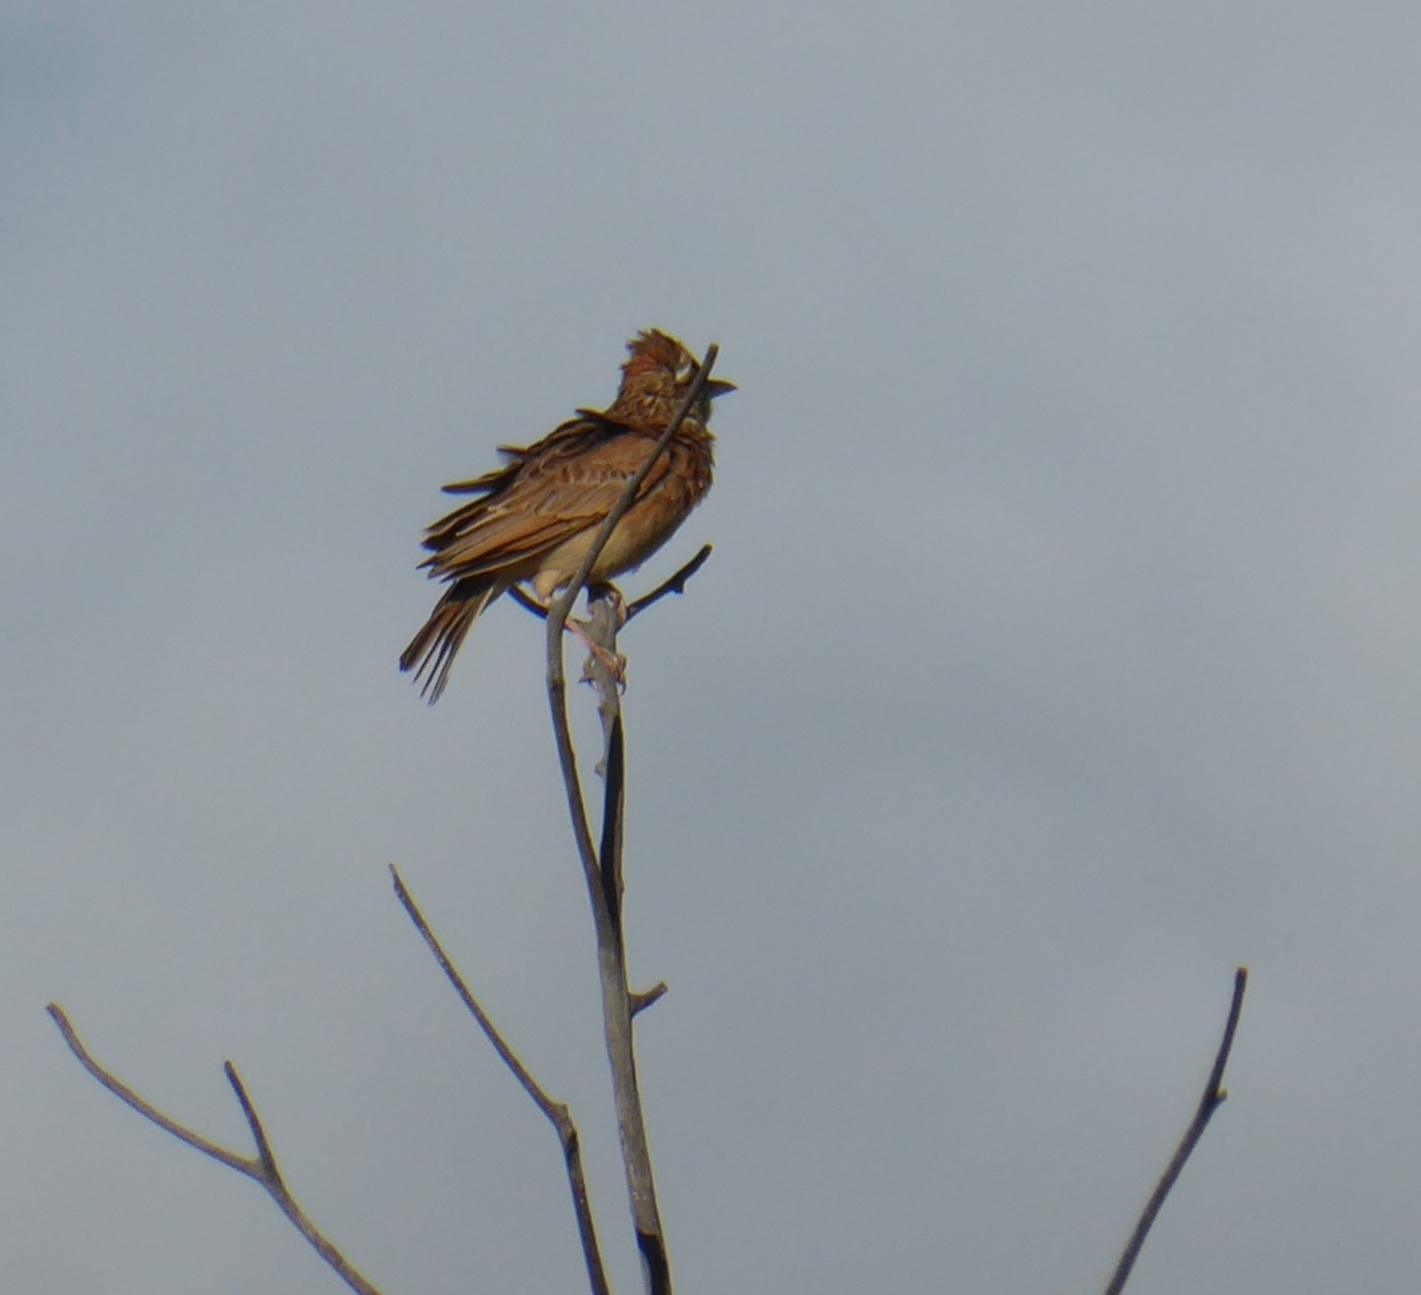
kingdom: Animalia
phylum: Chordata
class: Aves
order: Passeriformes
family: Alaudidae
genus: Mirafra
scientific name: Mirafra africana
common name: Rufous-naped lark
